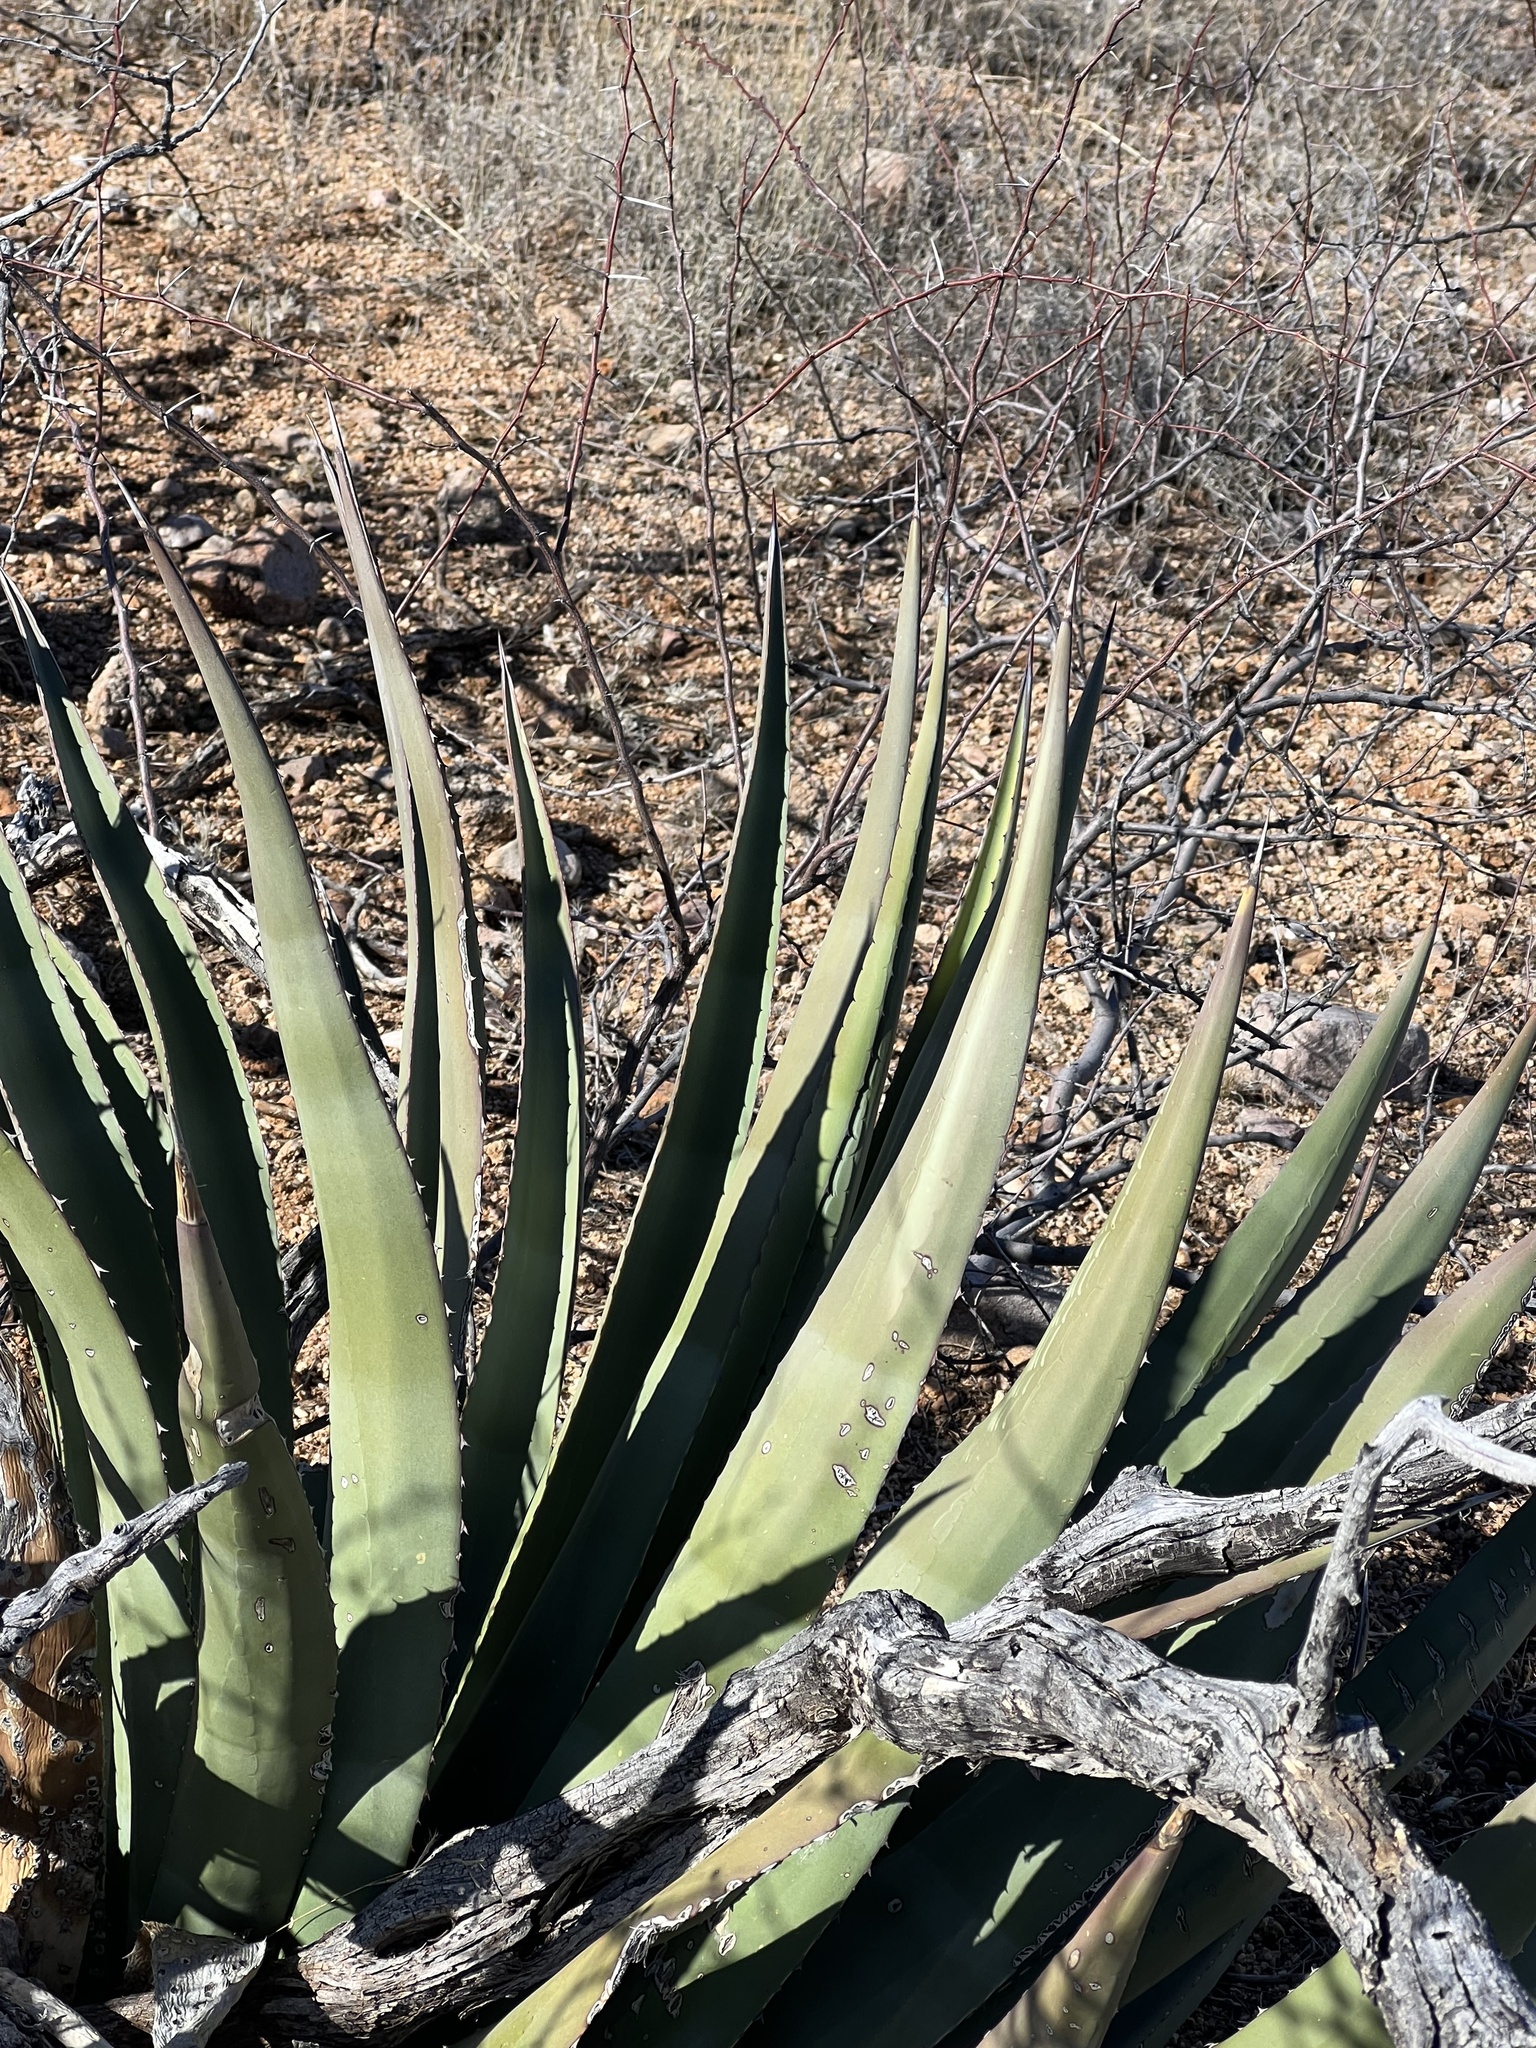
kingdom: Plantae
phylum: Tracheophyta
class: Liliopsida
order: Asparagales
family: Asparagaceae
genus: Agave
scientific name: Agave palmeri
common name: Palmer agave
